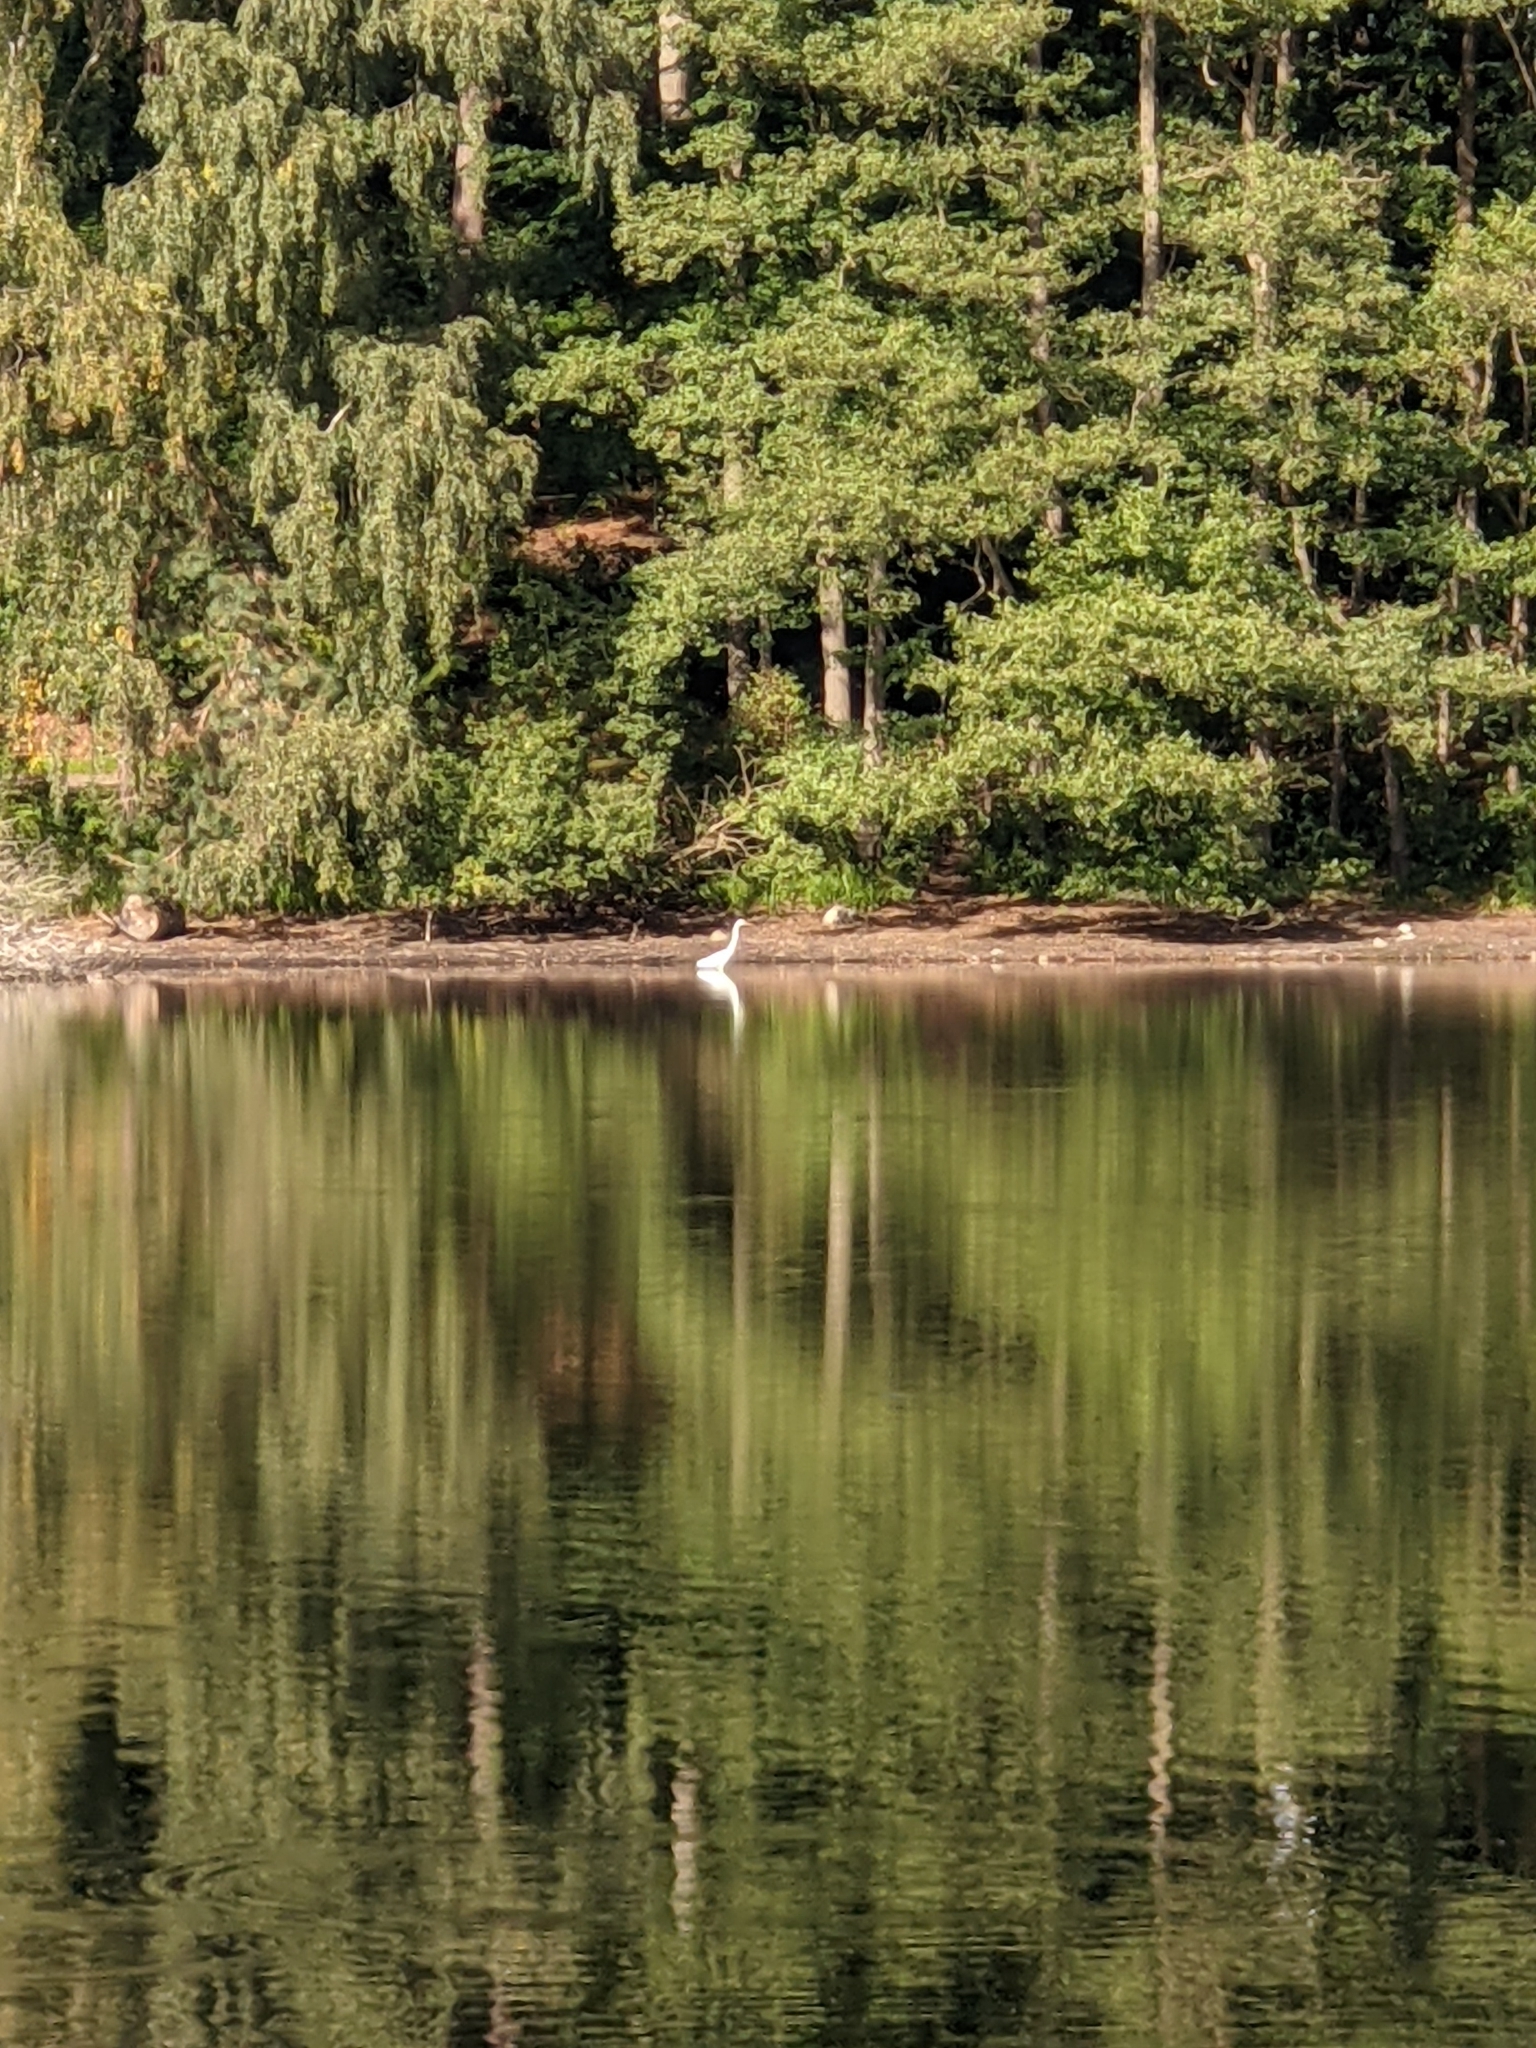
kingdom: Animalia
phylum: Chordata
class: Aves
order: Pelecaniformes
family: Ardeidae
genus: Ardea
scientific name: Ardea alba
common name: Great egret
